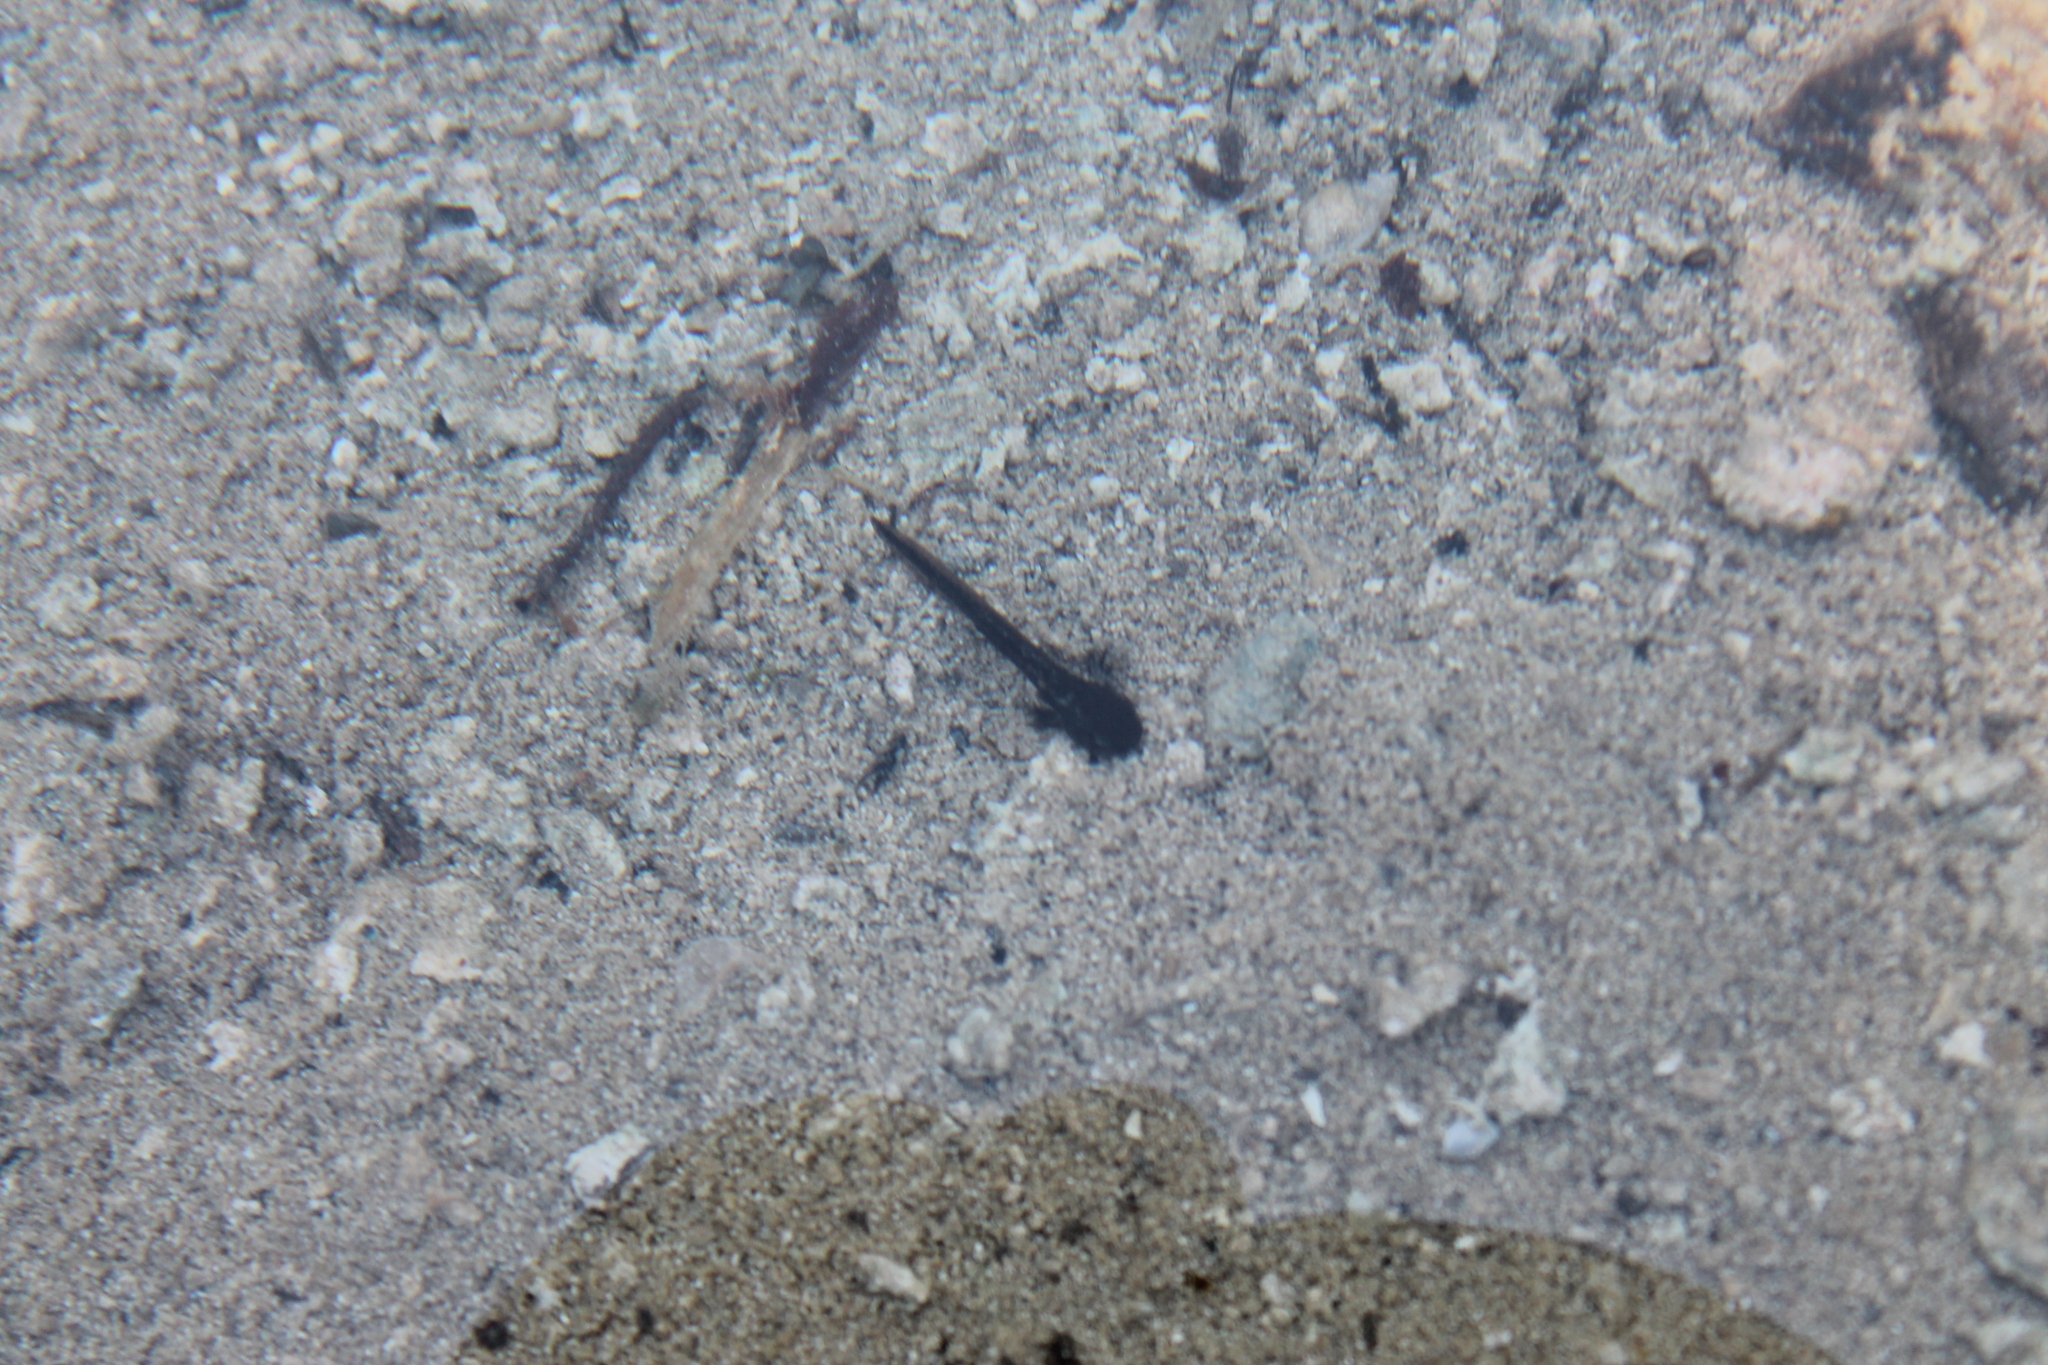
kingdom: Animalia
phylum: Chordata
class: Amphibia
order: Caudata
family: Ambystomatidae
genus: Ambystoma
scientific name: Ambystoma barbouri
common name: Streamside salamander
